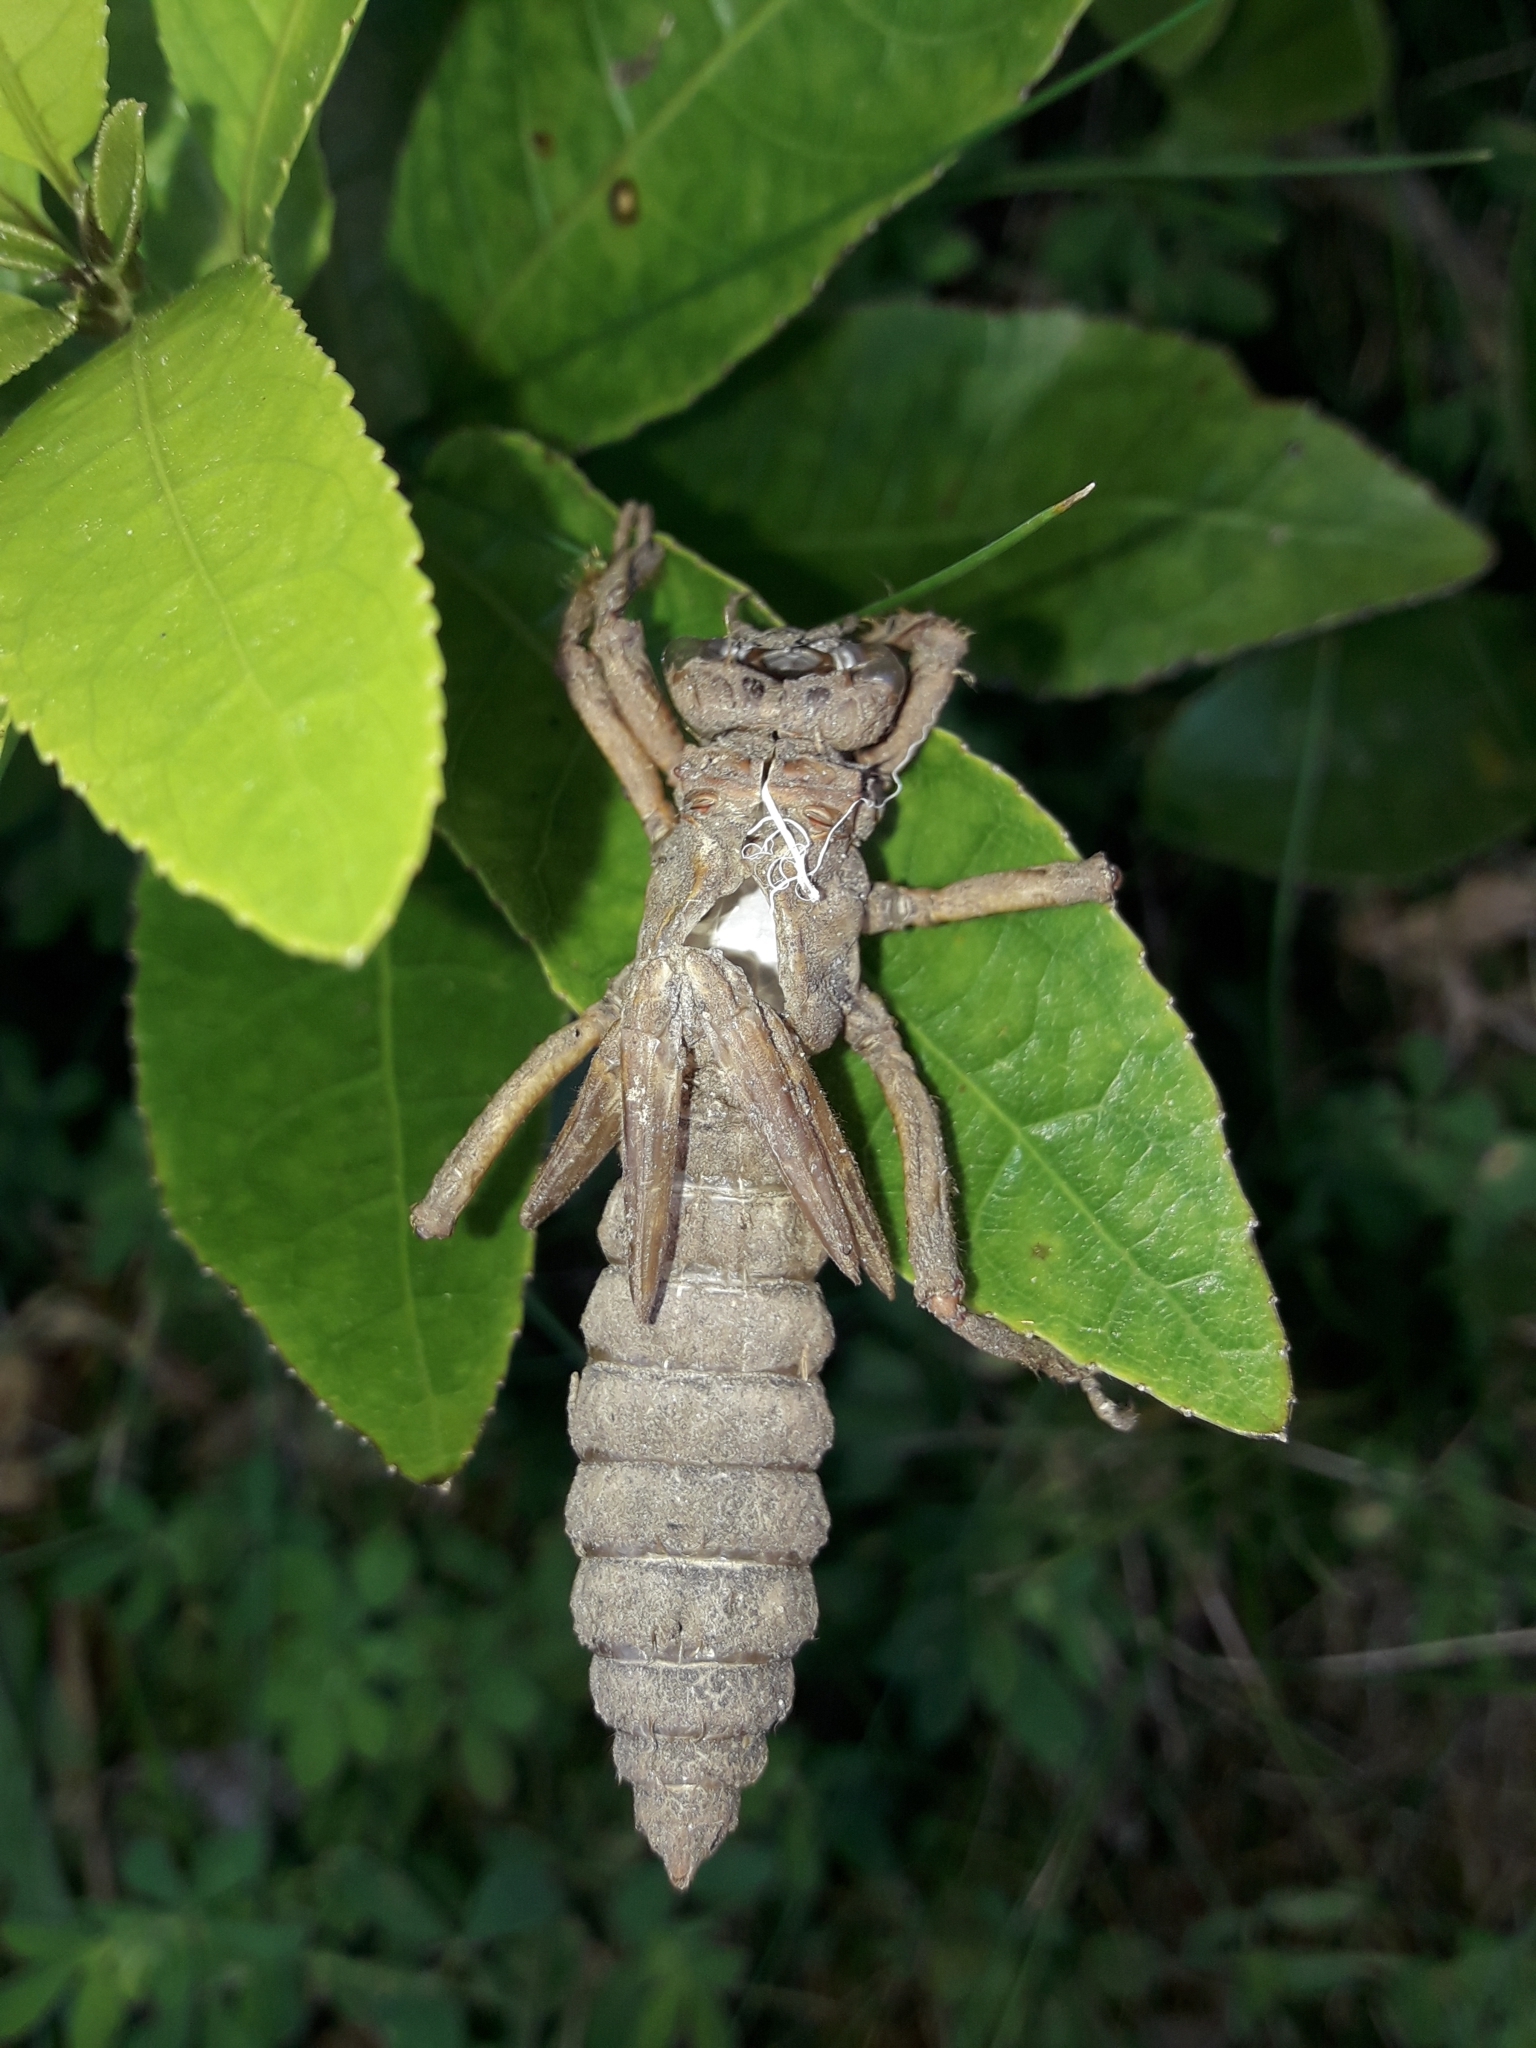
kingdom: Animalia
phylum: Arthropoda
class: Insecta
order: Odonata
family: Petaluridae
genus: Uropetala
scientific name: Uropetala carovei
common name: Bush giant dragonfly
